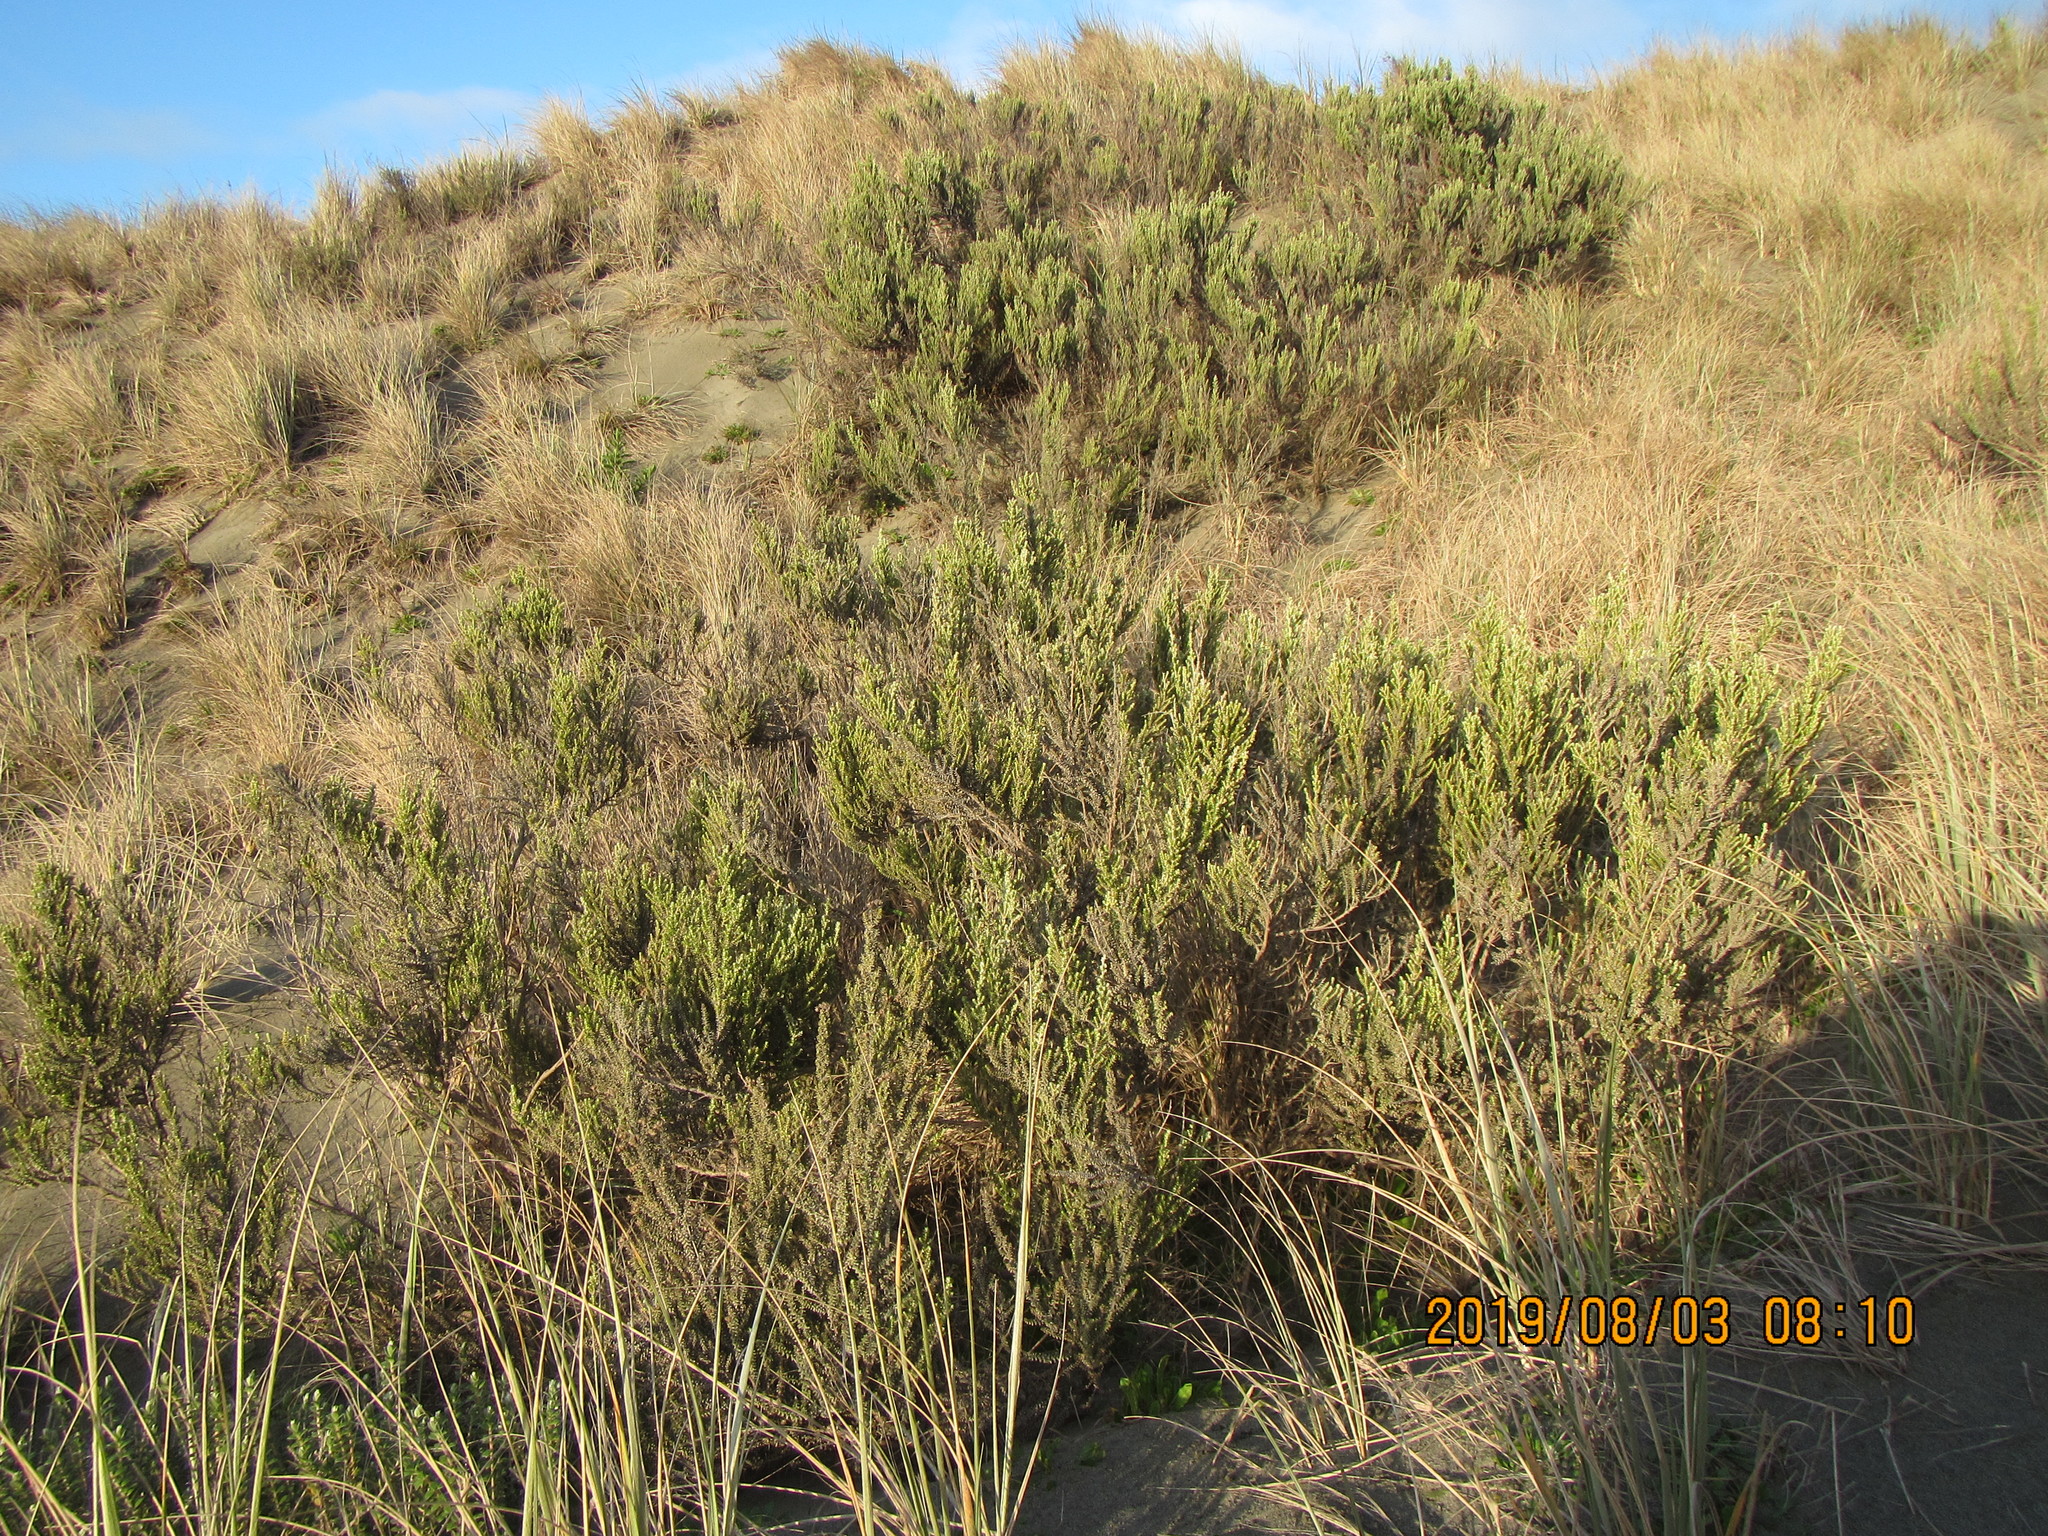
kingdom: Plantae
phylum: Tracheophyta
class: Magnoliopsida
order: Asterales
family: Asteraceae
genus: Ozothamnus
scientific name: Ozothamnus leptophyllus
